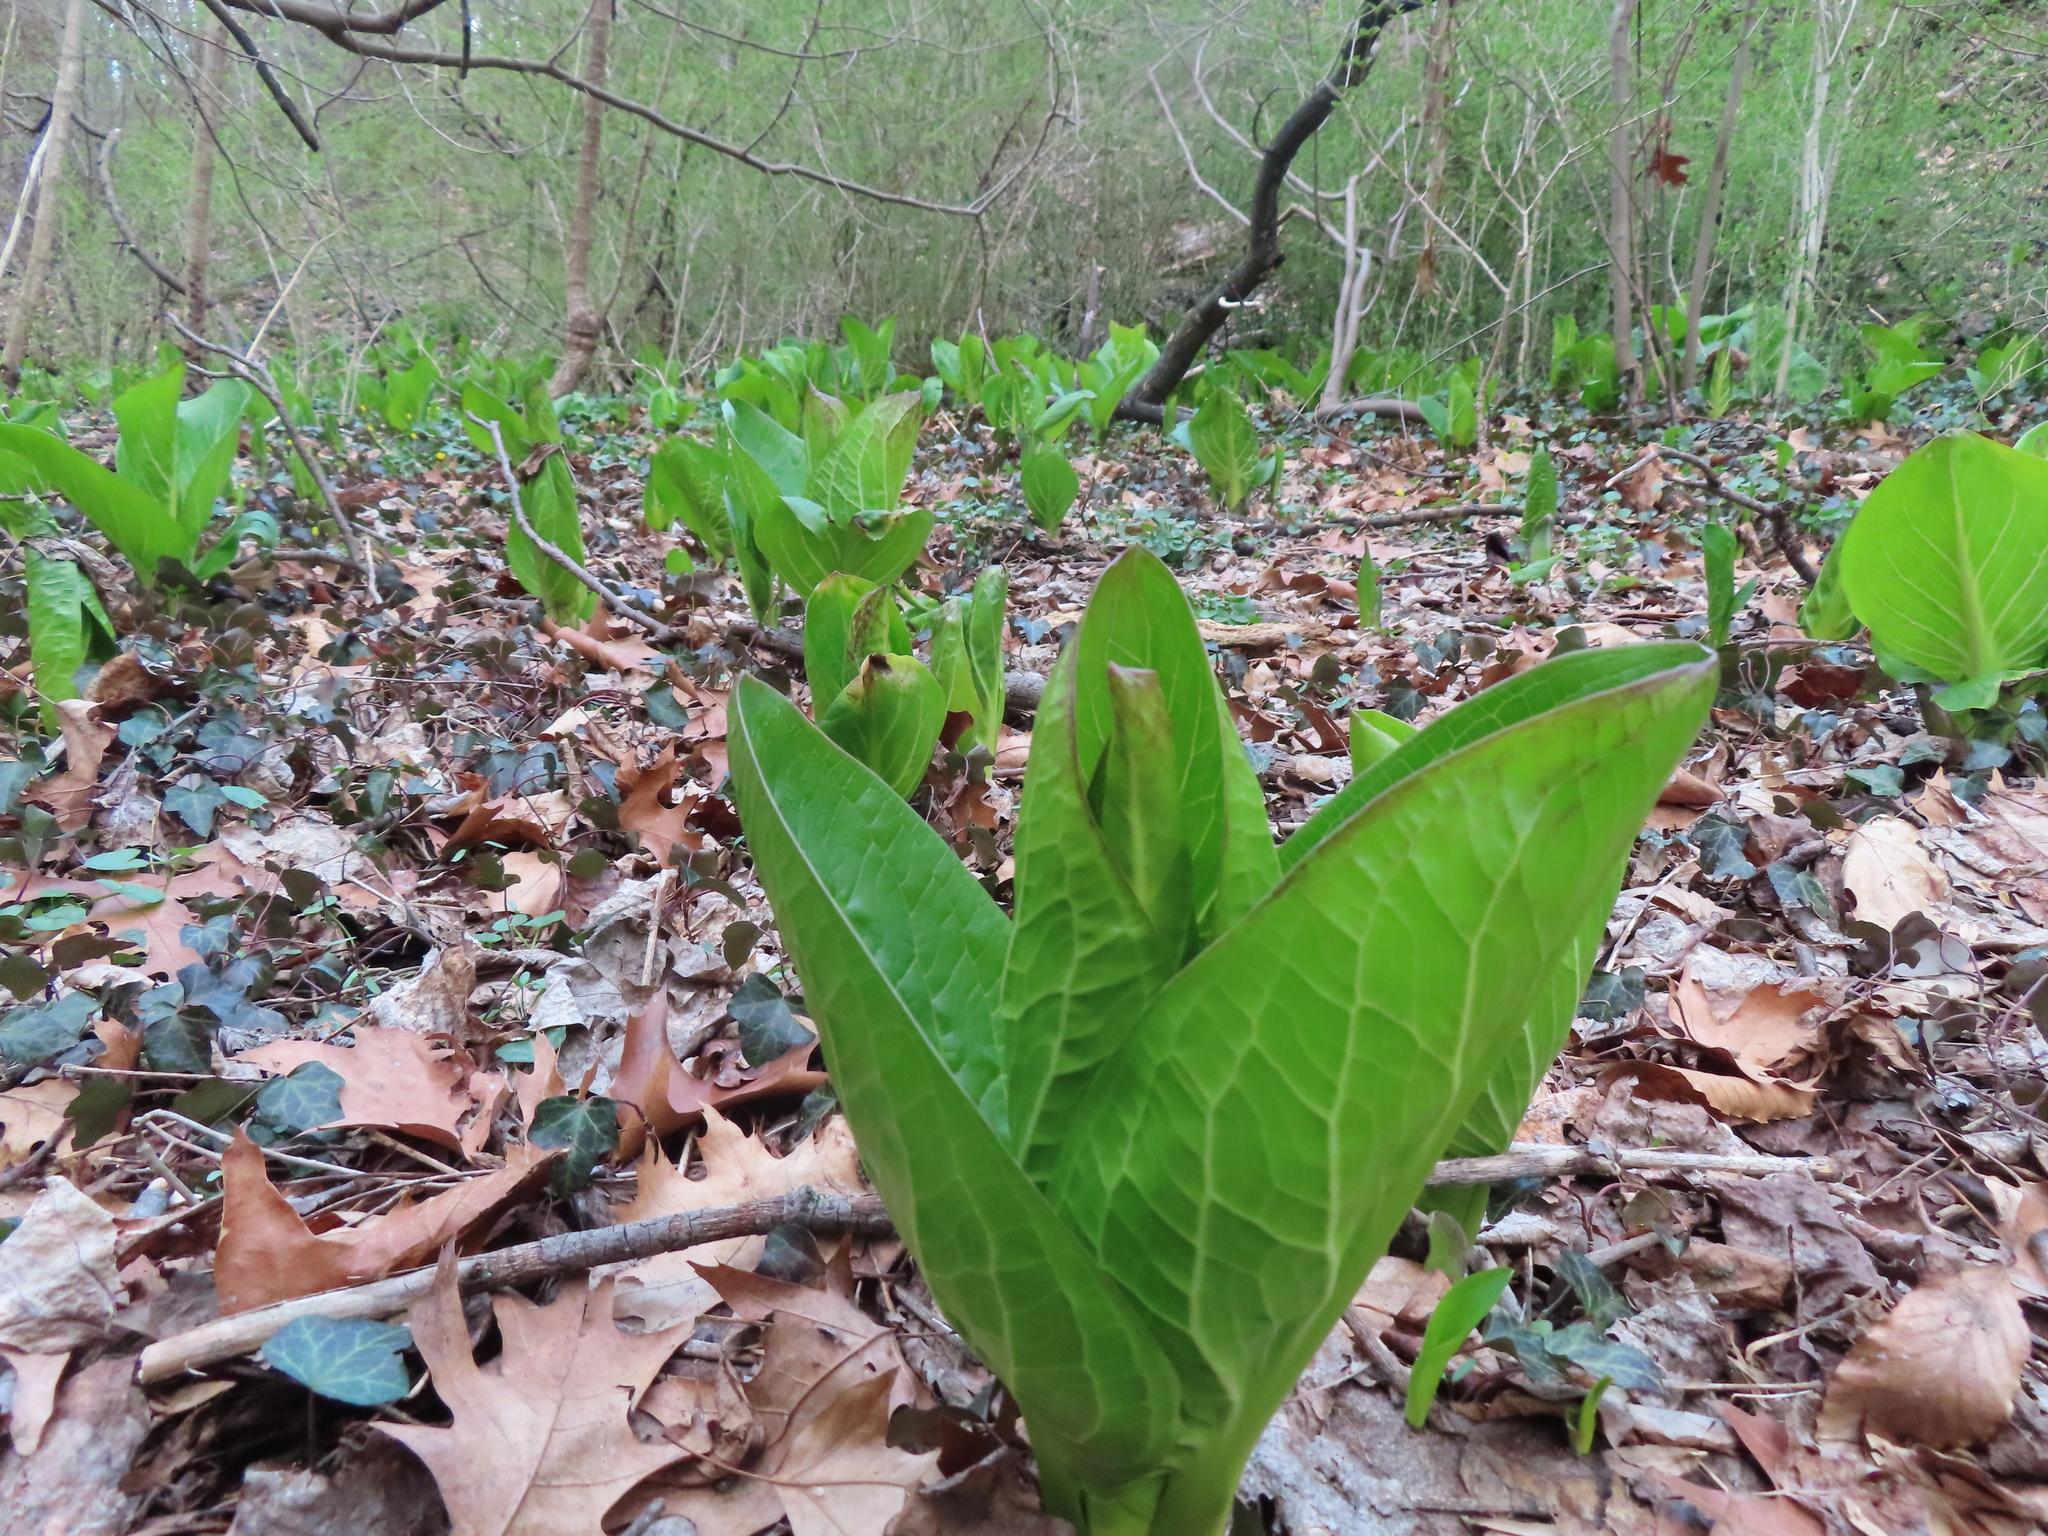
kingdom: Plantae
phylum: Tracheophyta
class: Liliopsida
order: Alismatales
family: Araceae
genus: Symplocarpus
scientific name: Symplocarpus foetidus
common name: Eastern skunk cabbage
